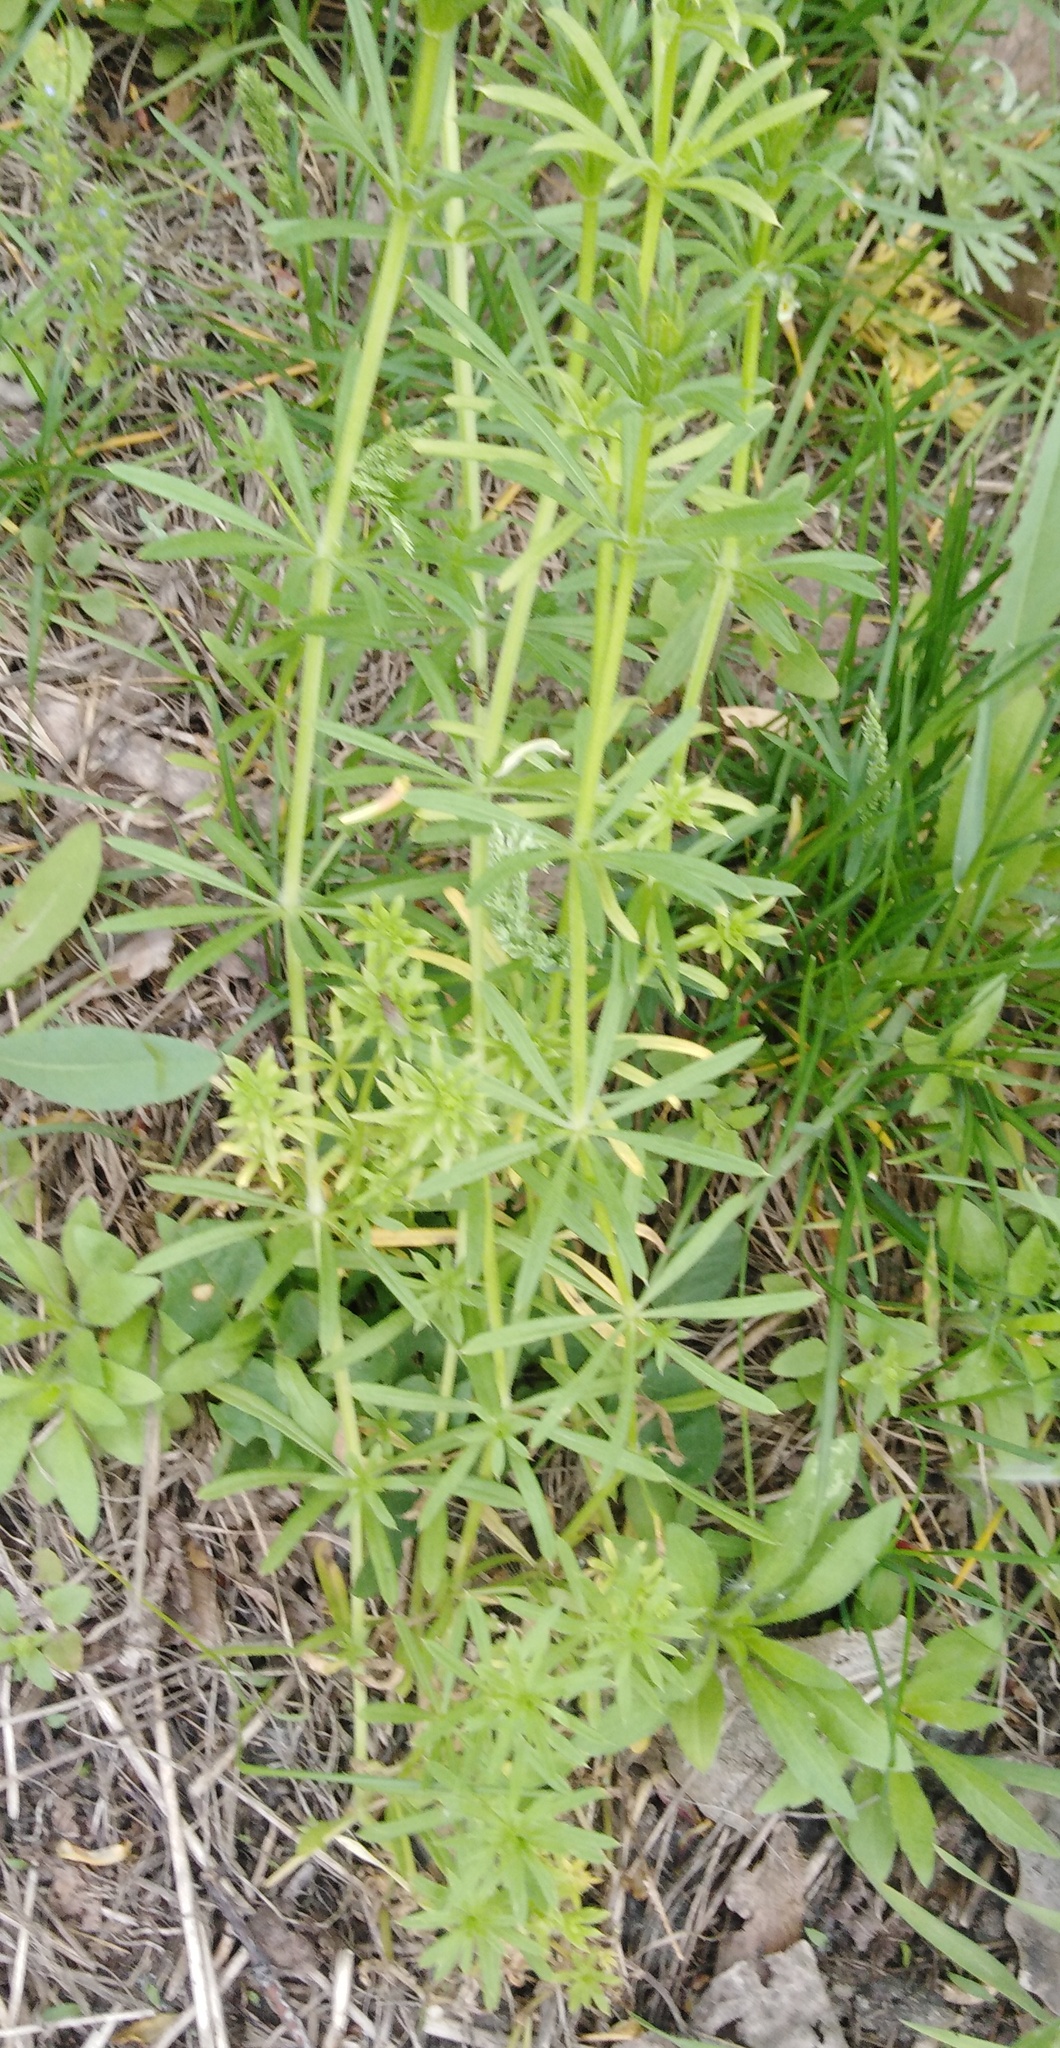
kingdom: Plantae
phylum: Tracheophyta
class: Magnoliopsida
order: Gentianales
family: Rubiaceae
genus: Galium
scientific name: Galium aparine
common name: Cleavers
